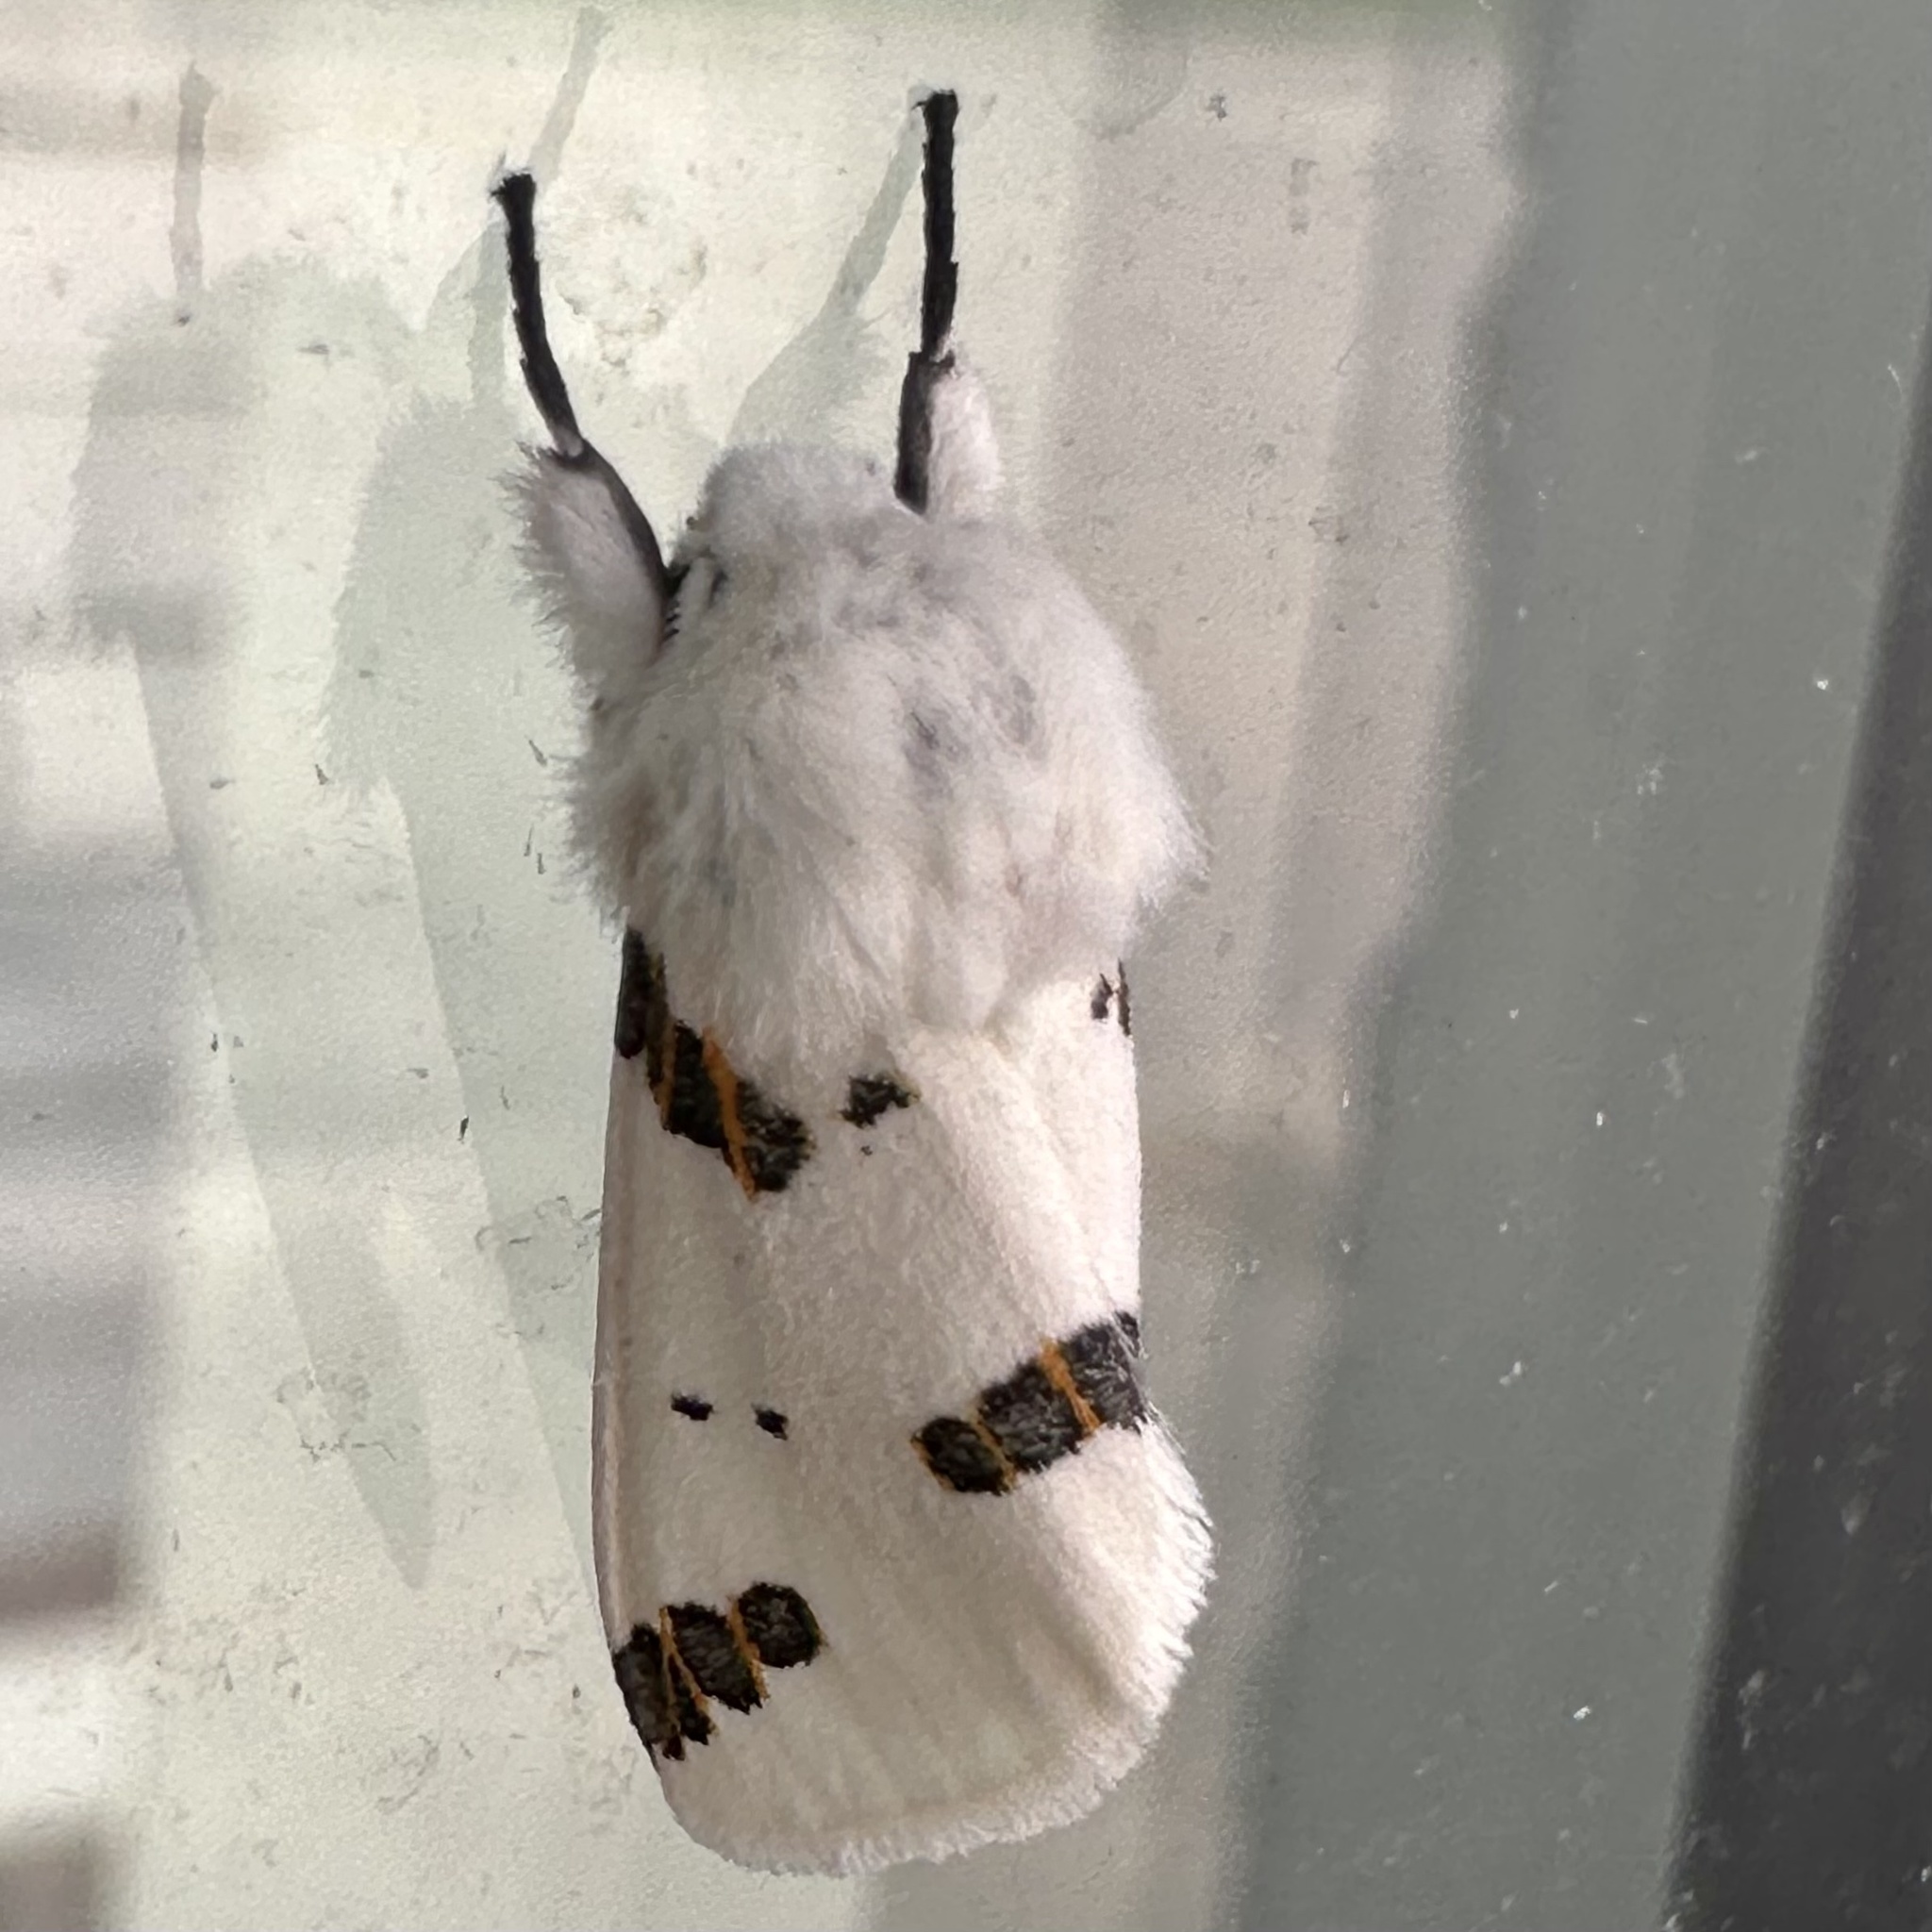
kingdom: Animalia
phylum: Arthropoda
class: Insecta
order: Lepidoptera
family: Erebidae
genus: Euerythra
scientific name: Euerythra trimaculata
